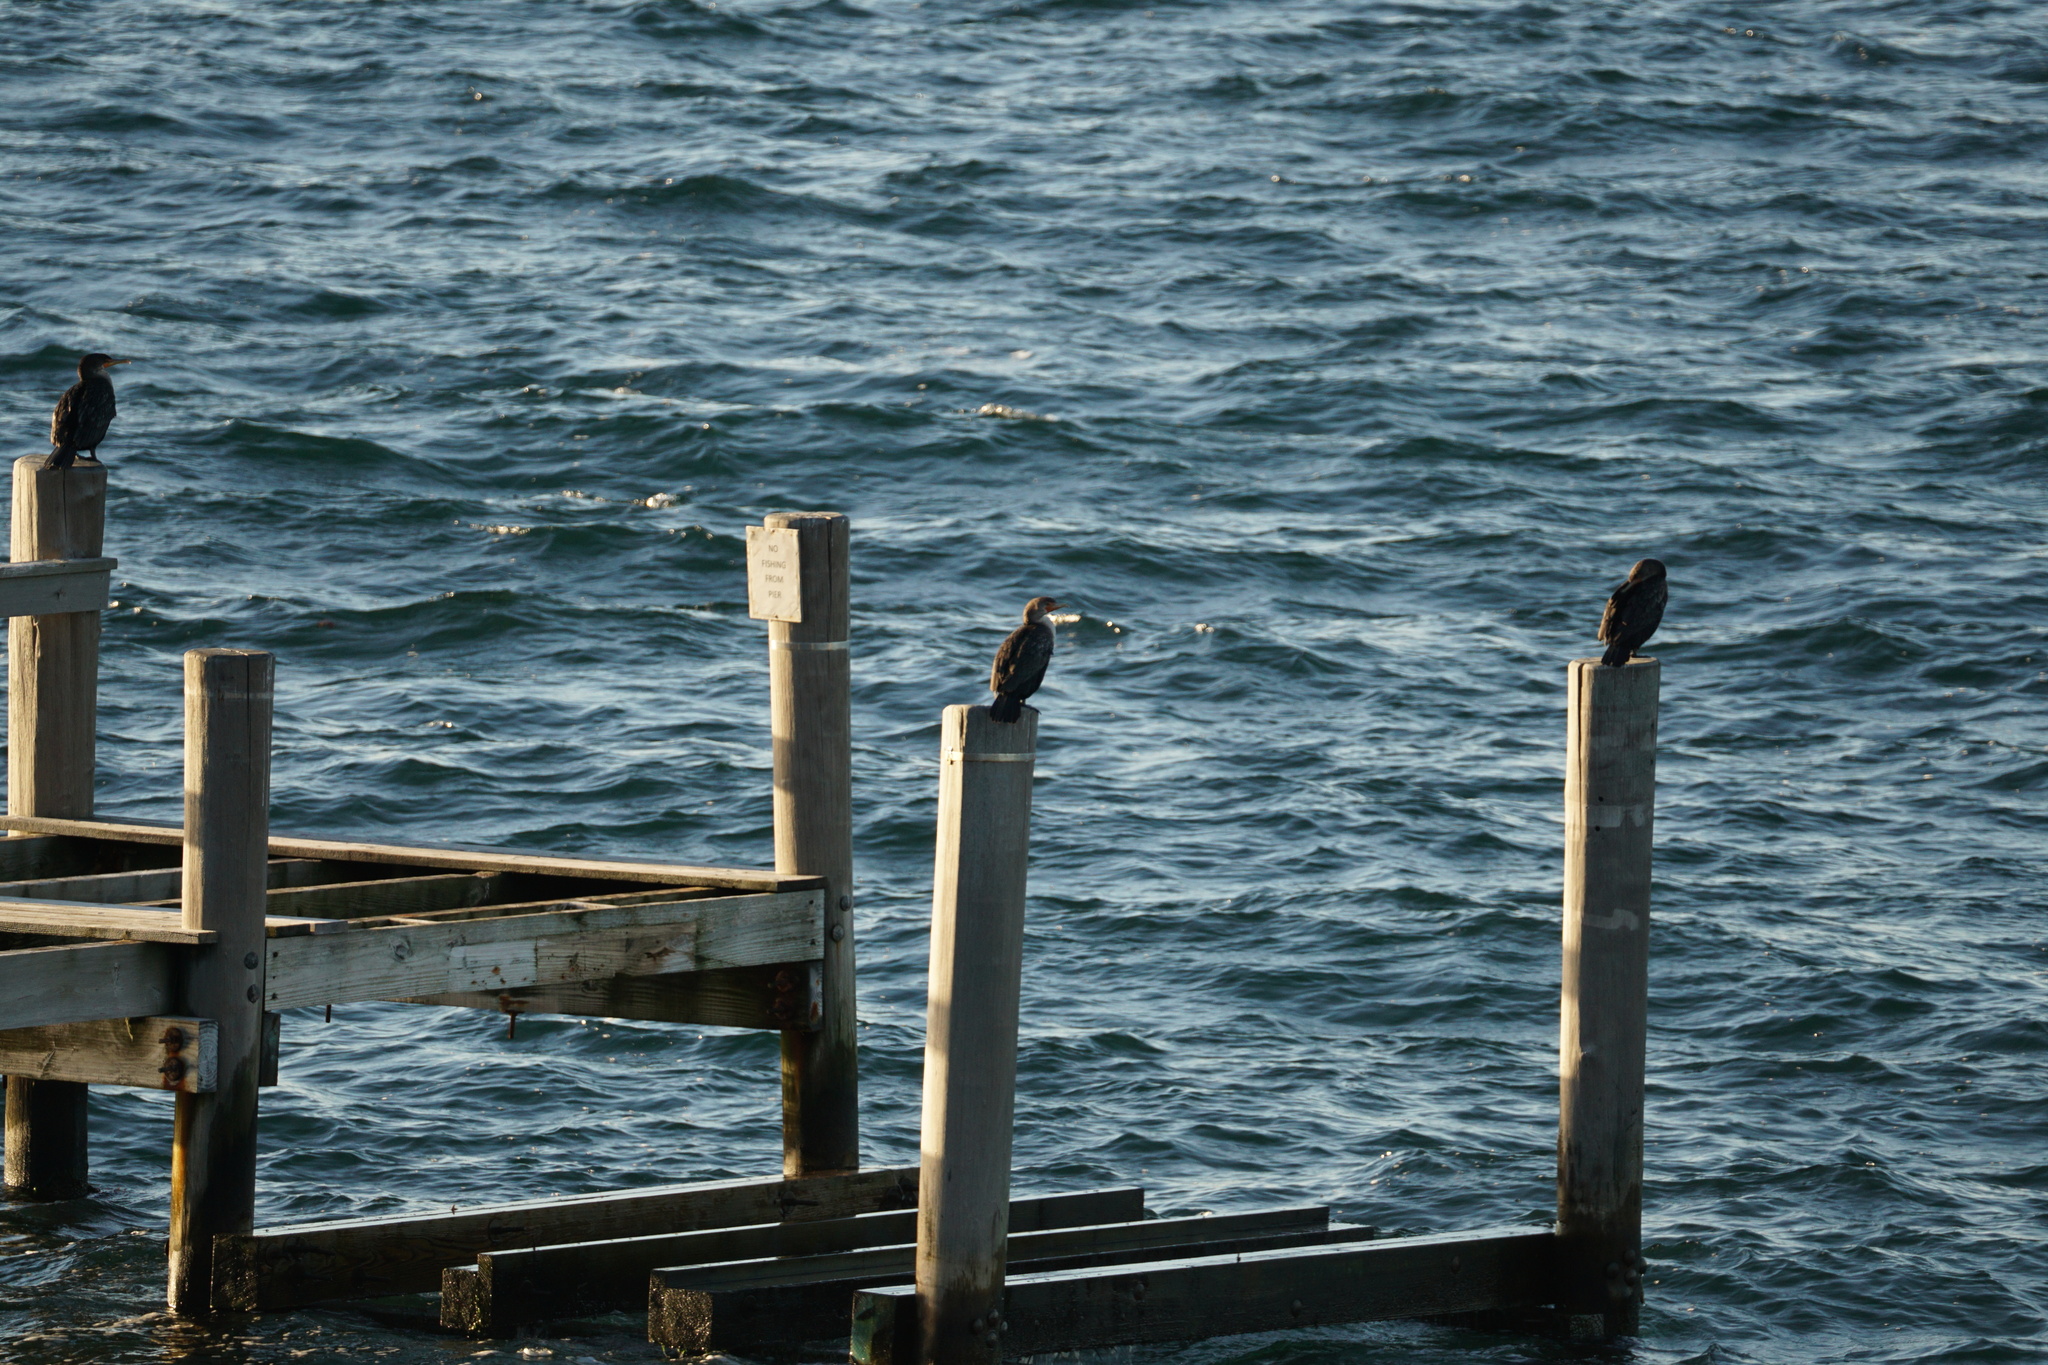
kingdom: Animalia
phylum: Chordata
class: Aves
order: Suliformes
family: Phalacrocoracidae
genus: Phalacrocorax
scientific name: Phalacrocorax carbo
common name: Great cormorant
